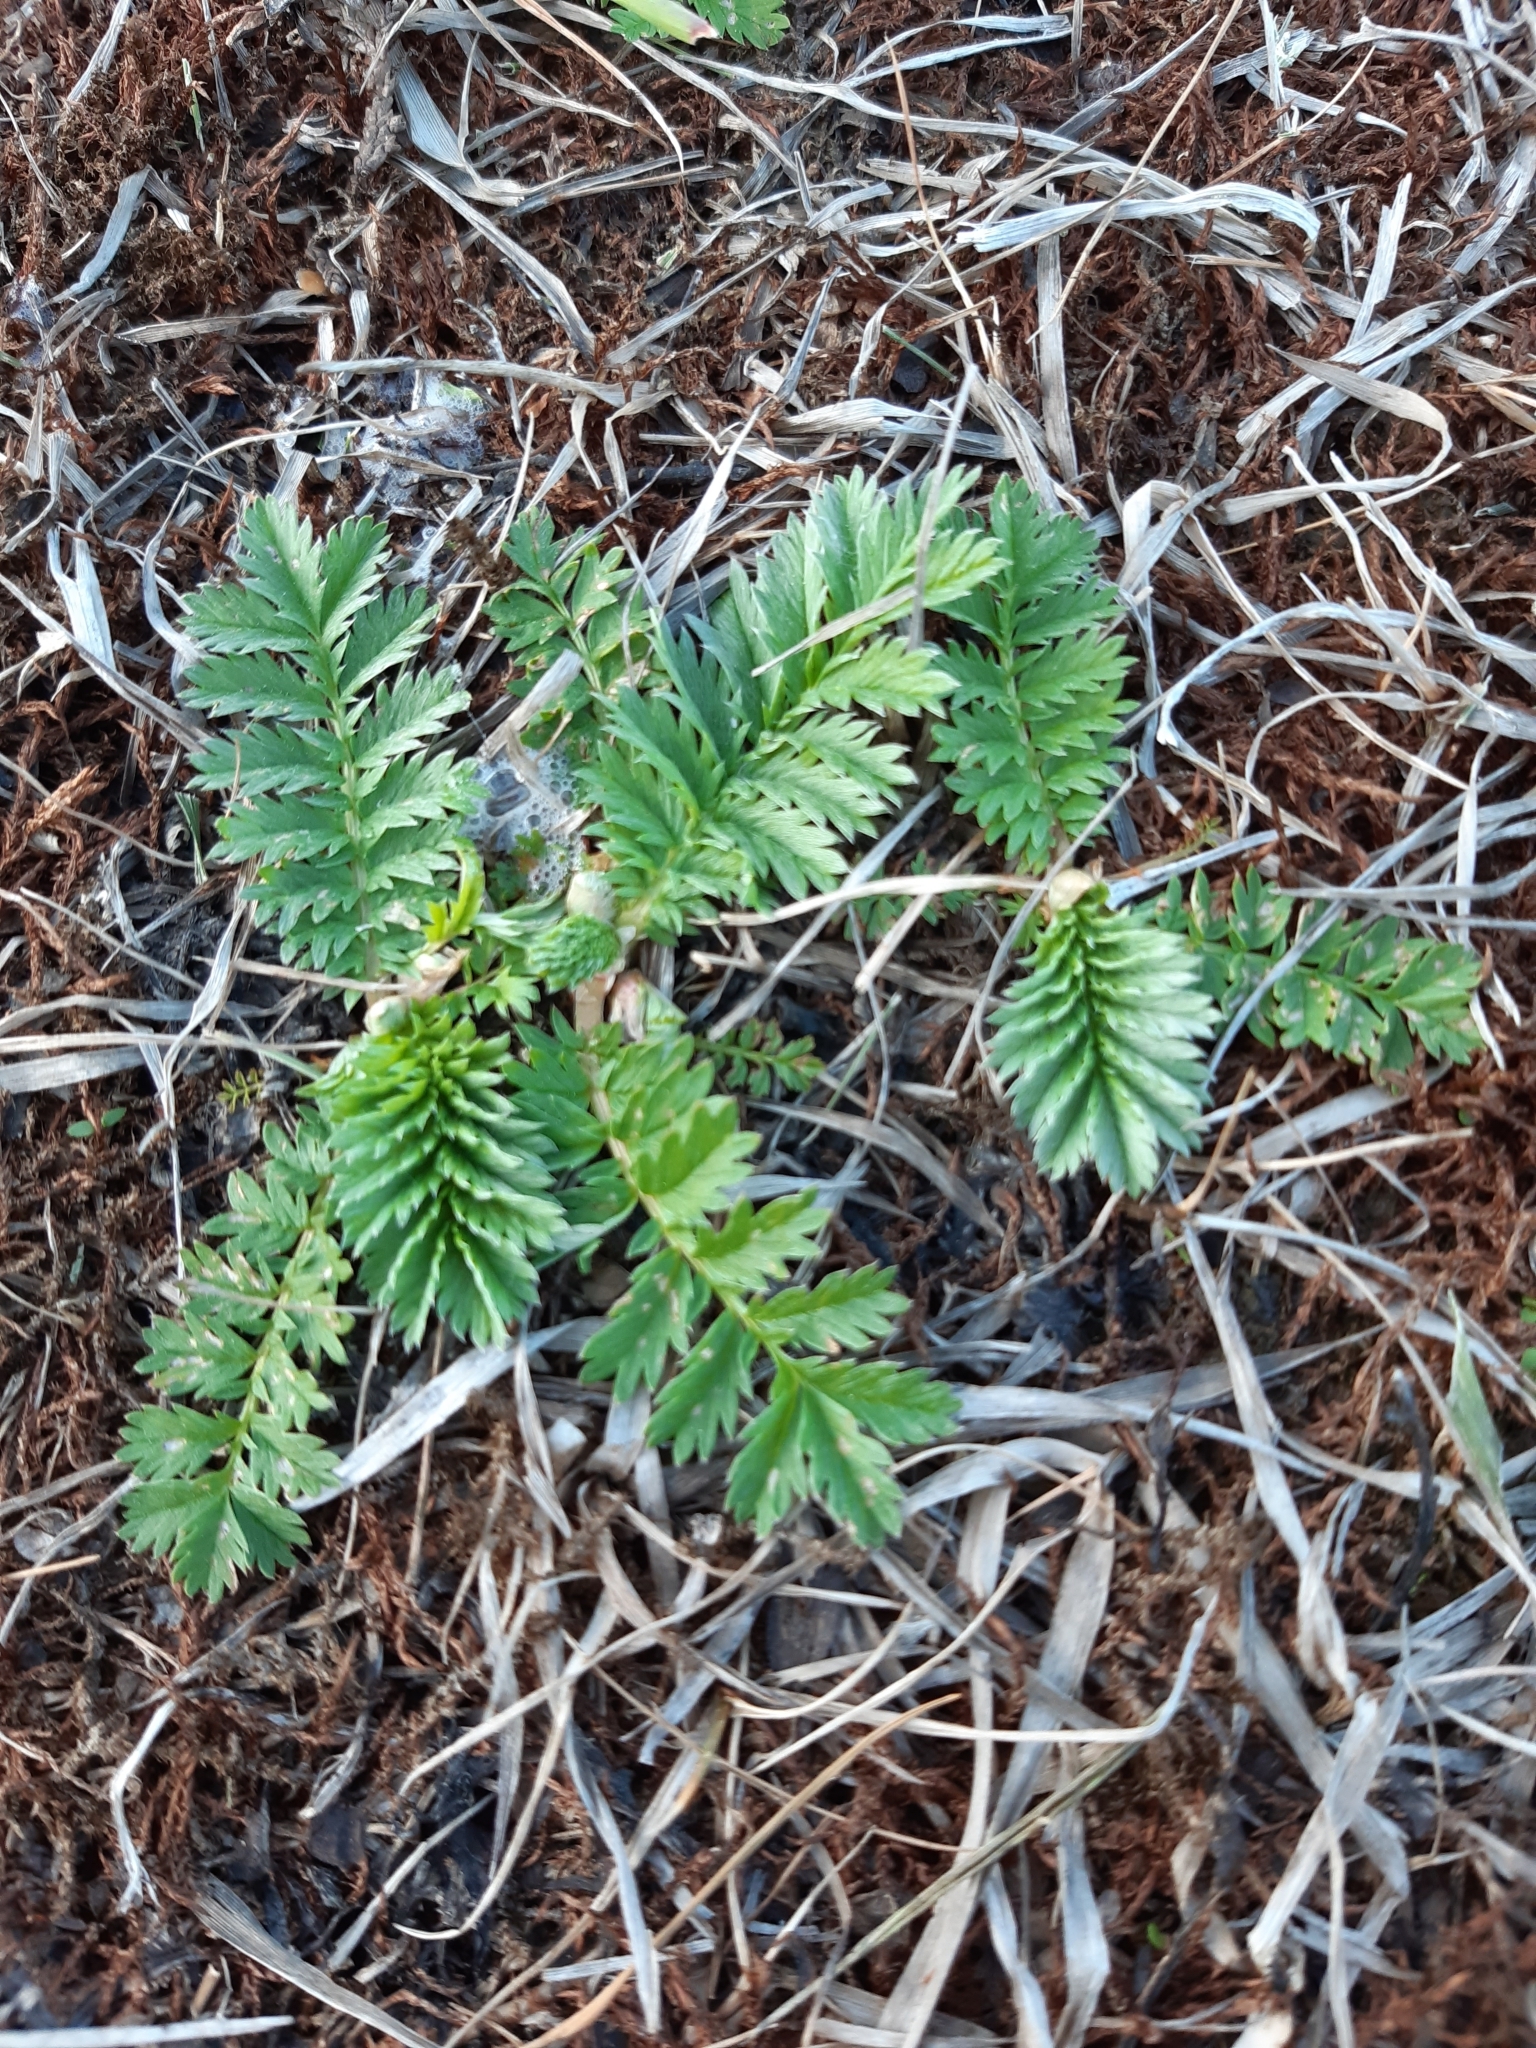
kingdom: Plantae
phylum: Tracheophyta
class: Magnoliopsida
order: Rosales
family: Rosaceae
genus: Argentina
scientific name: Argentina anserina
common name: Common silverweed
